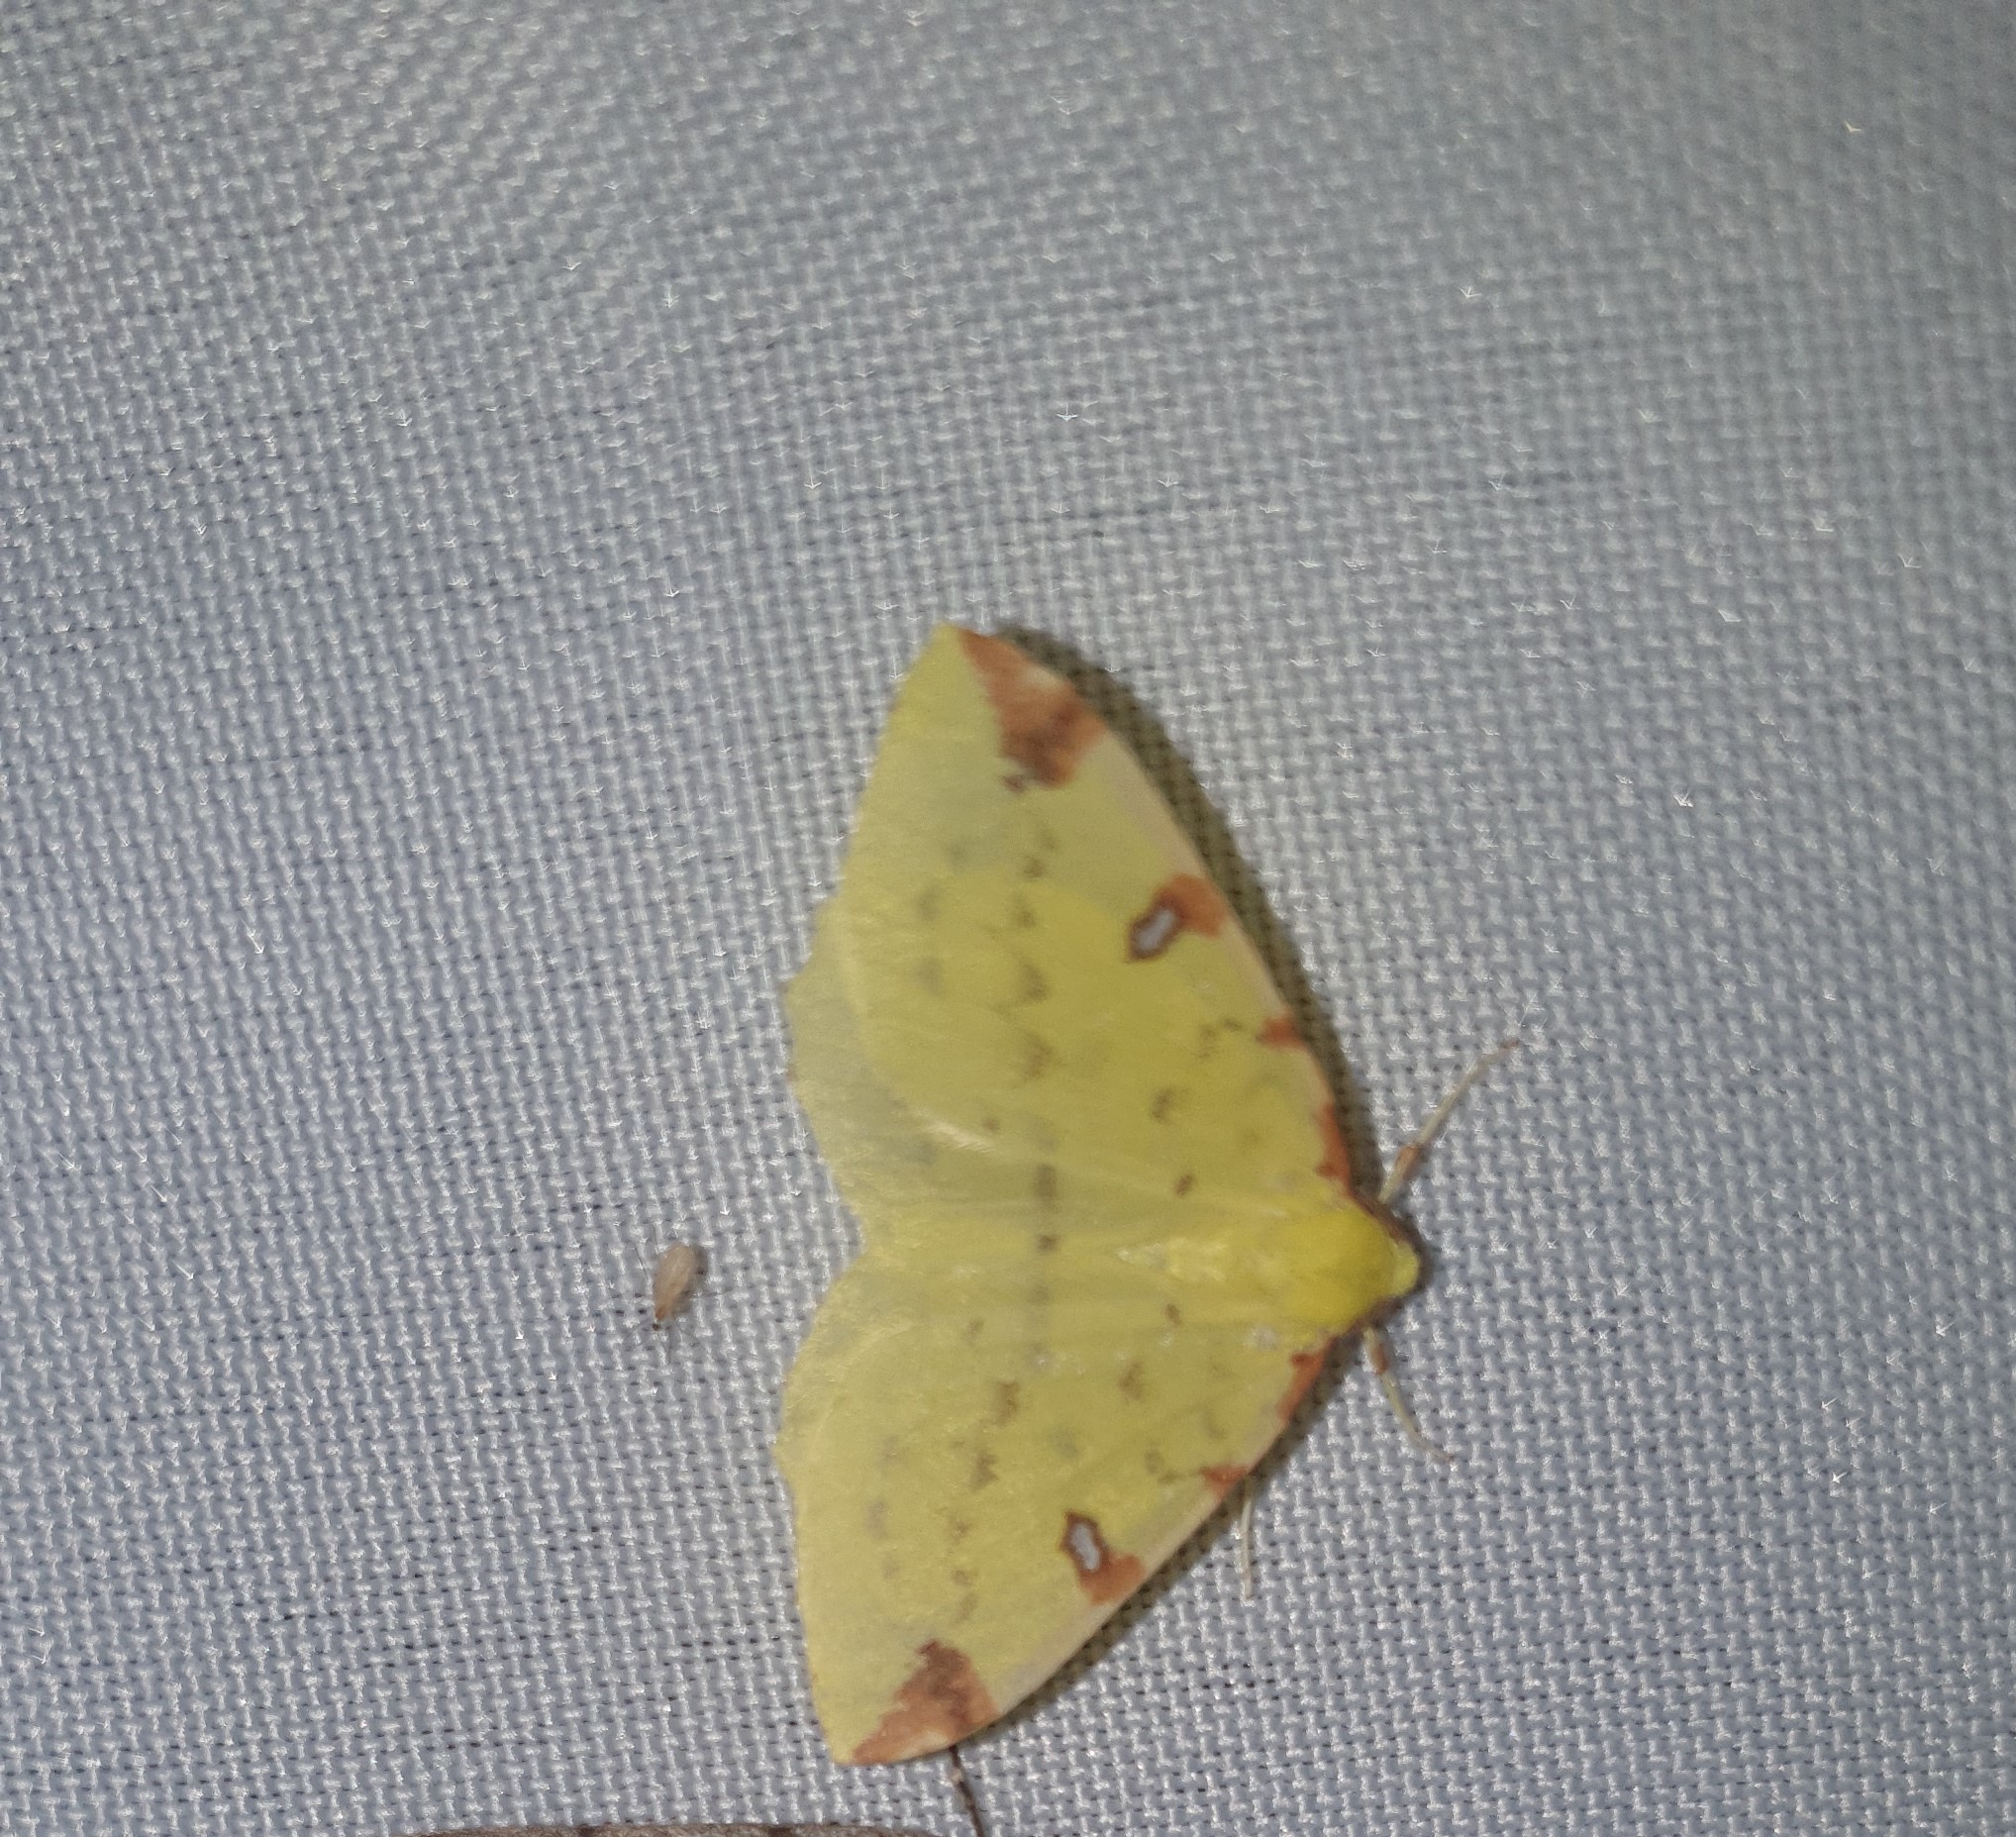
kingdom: Animalia
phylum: Arthropoda
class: Insecta
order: Lepidoptera
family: Geometridae
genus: Opisthograptis
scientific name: Opisthograptis luteolata
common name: Brimstone moth
